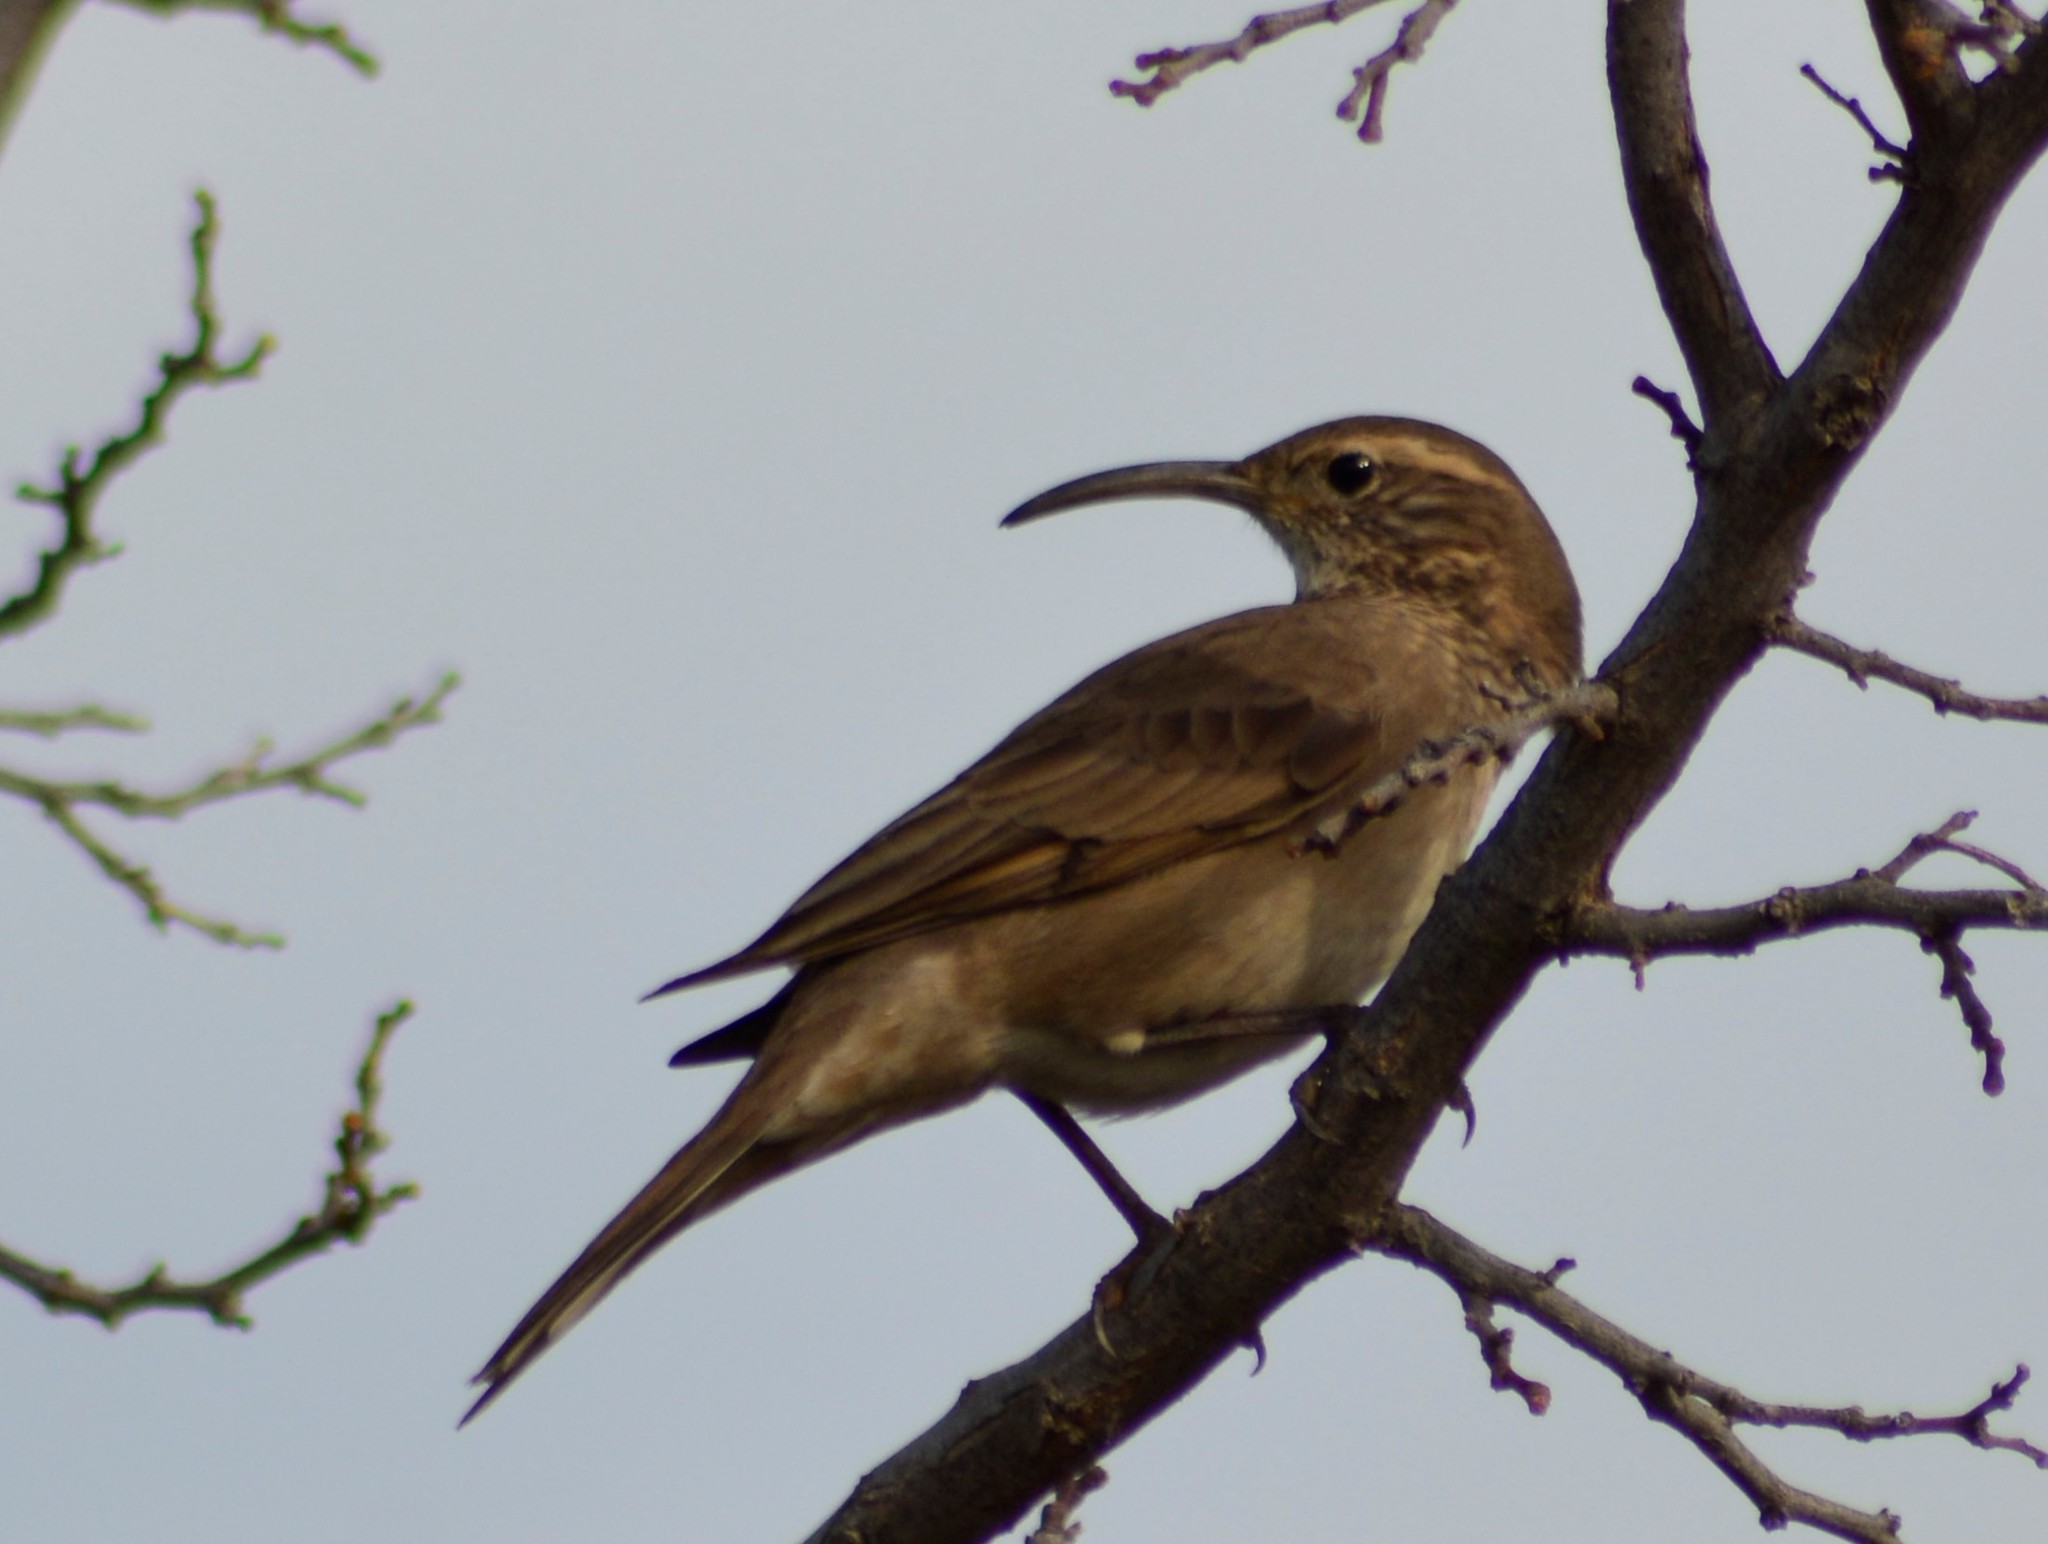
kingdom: Animalia
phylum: Chordata
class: Aves
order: Passeriformes
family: Furnariidae
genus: Upucerthia
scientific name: Upucerthia dumetaria
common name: Scale-throated earthcreeper
